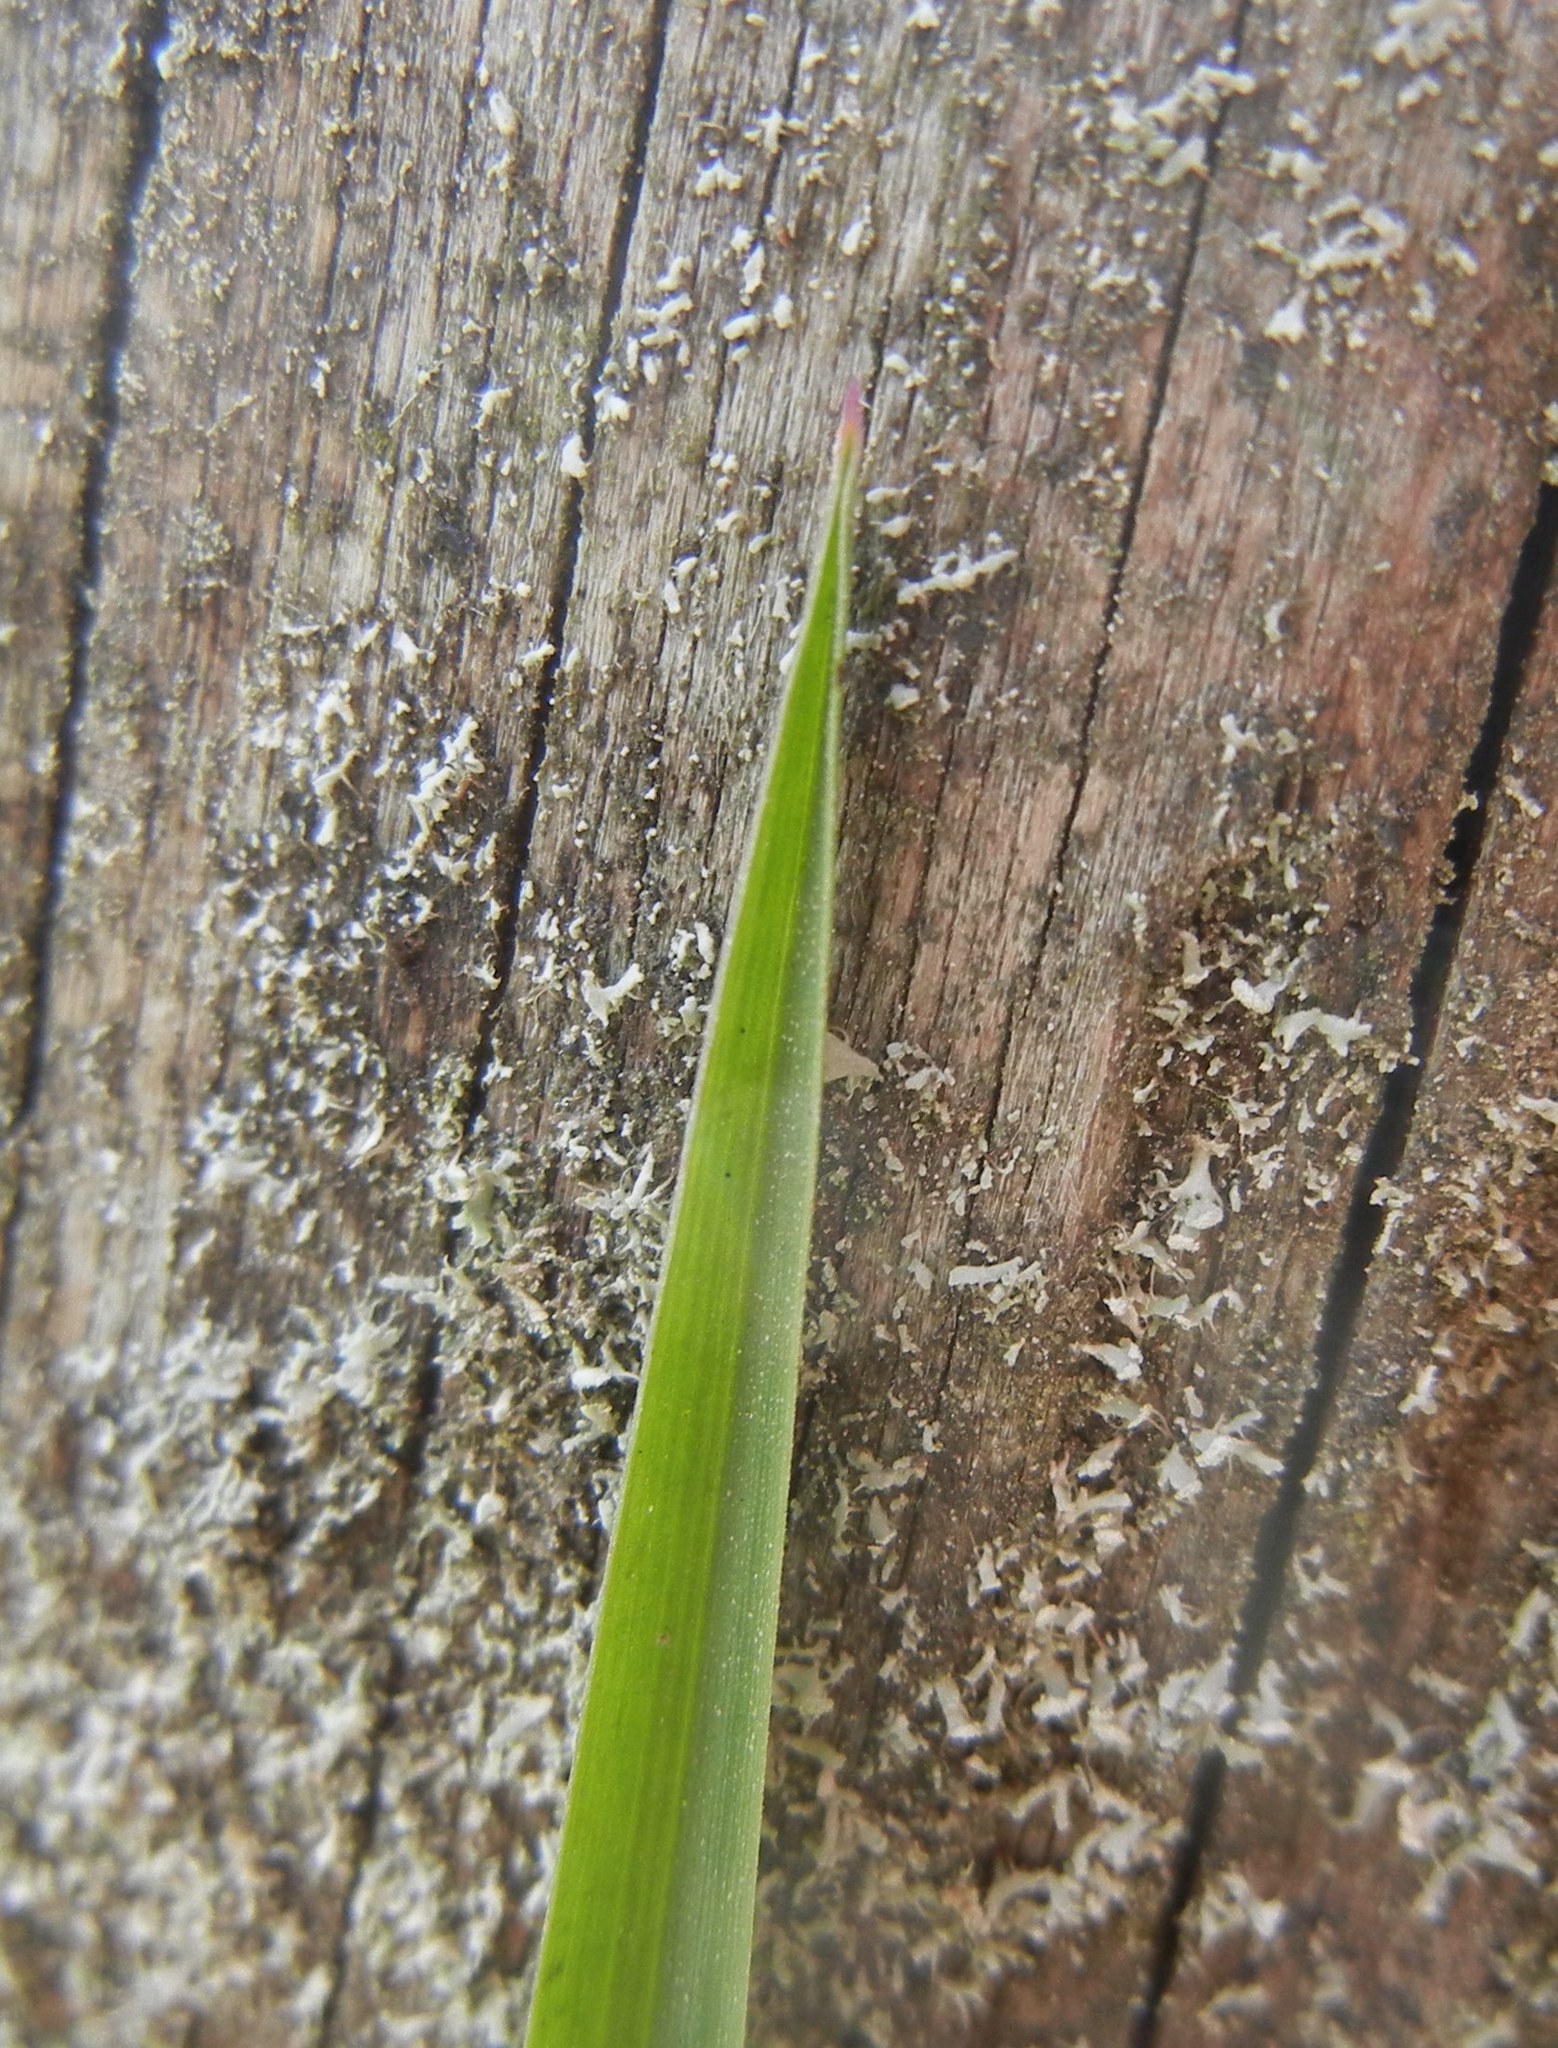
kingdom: Plantae
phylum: Tracheophyta
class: Liliopsida
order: Poales
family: Poaceae
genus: Poa
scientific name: Poa trivialis
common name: Rough bluegrass
